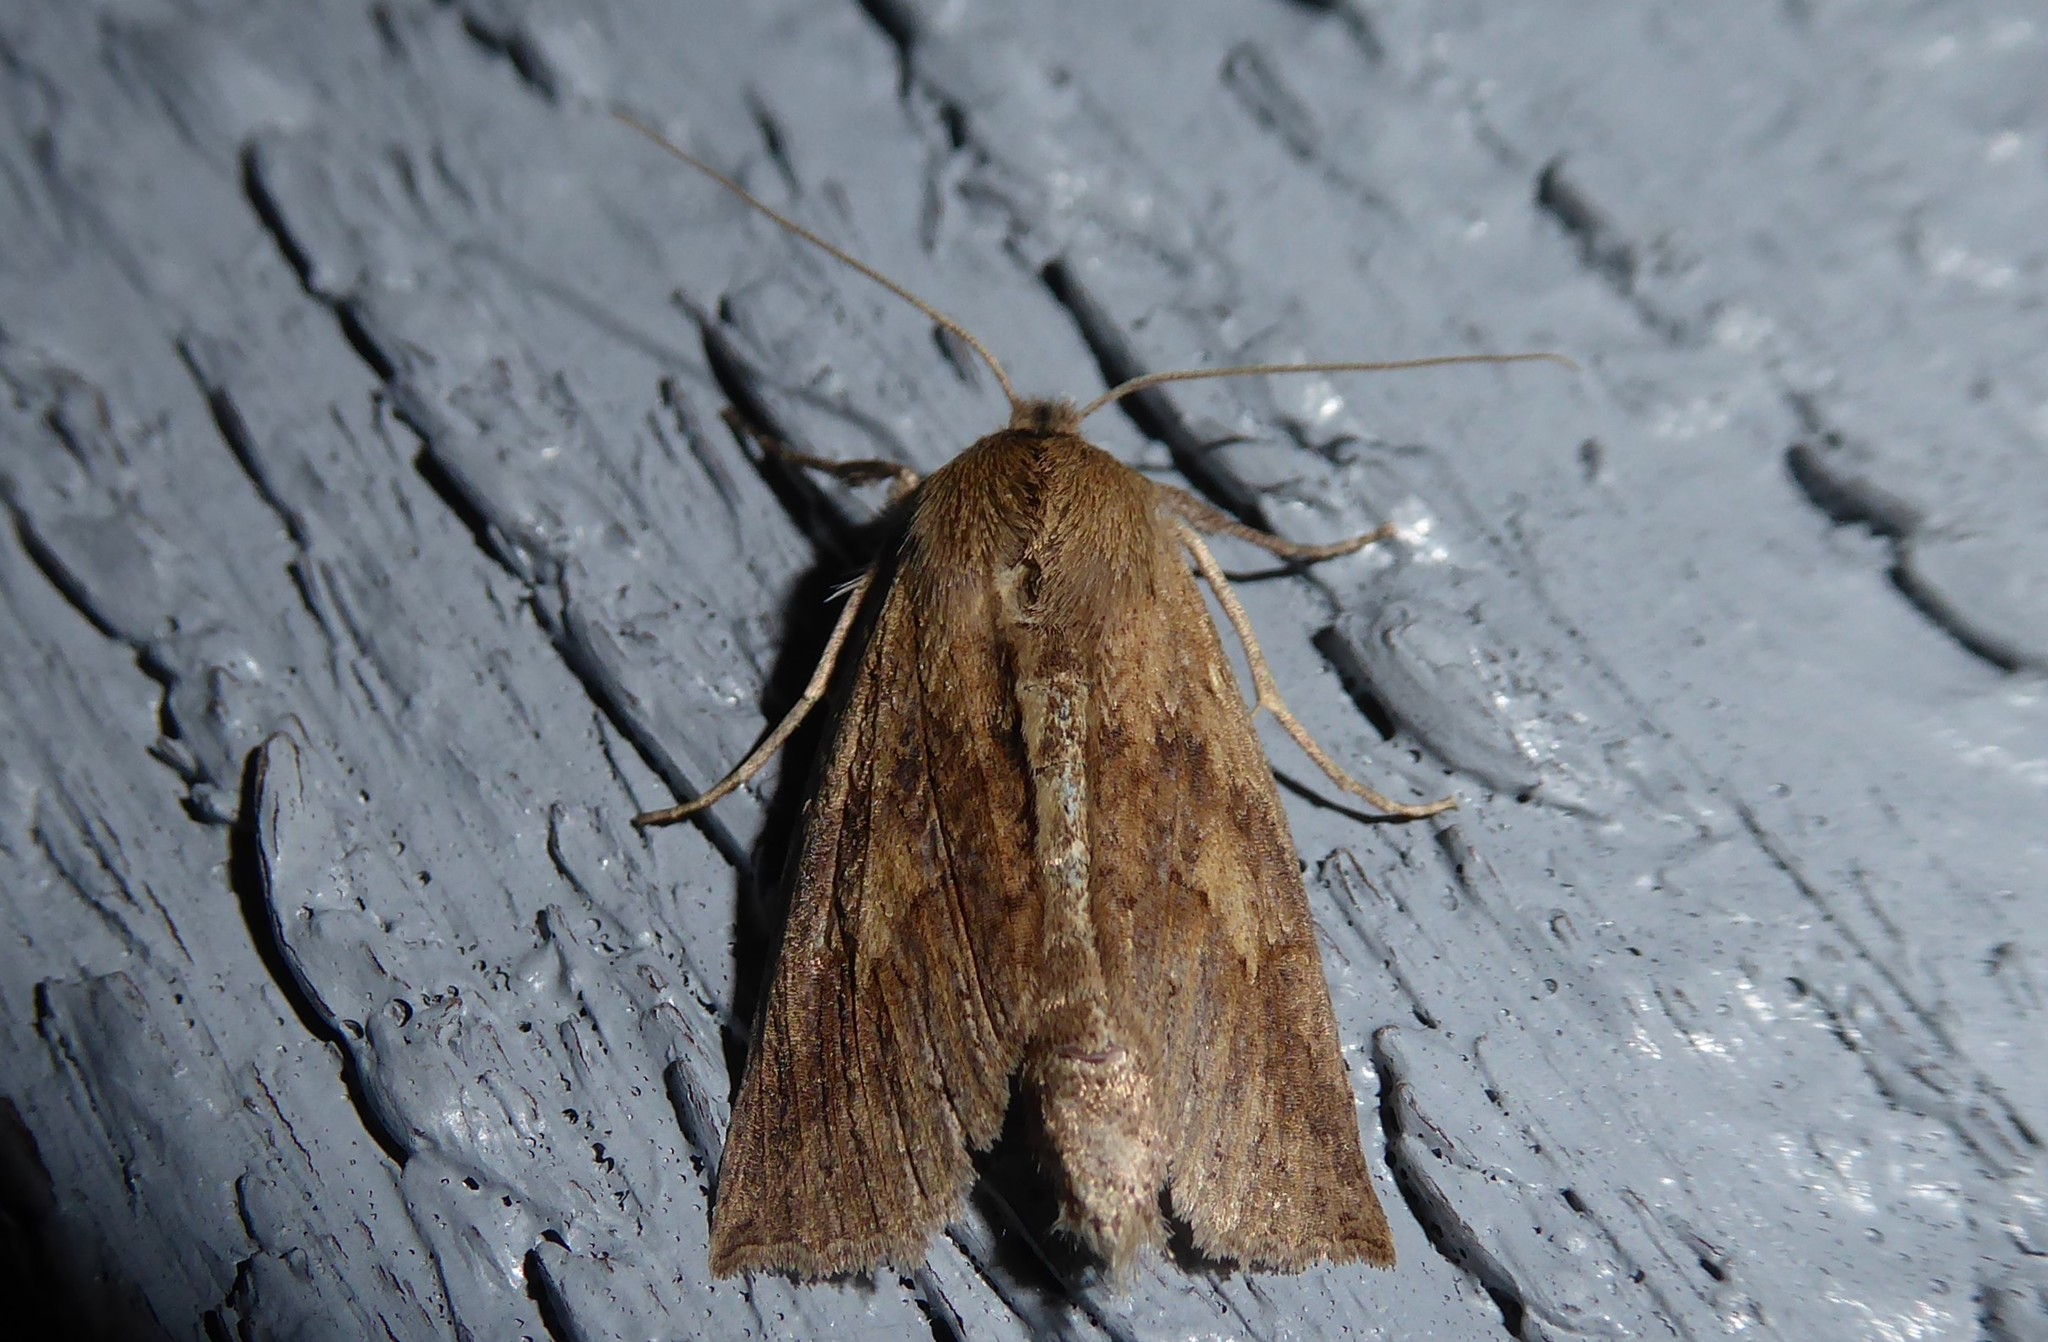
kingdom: Animalia
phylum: Arthropoda
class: Insecta
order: Lepidoptera
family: Geometridae
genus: Declana
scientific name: Declana leptomera
